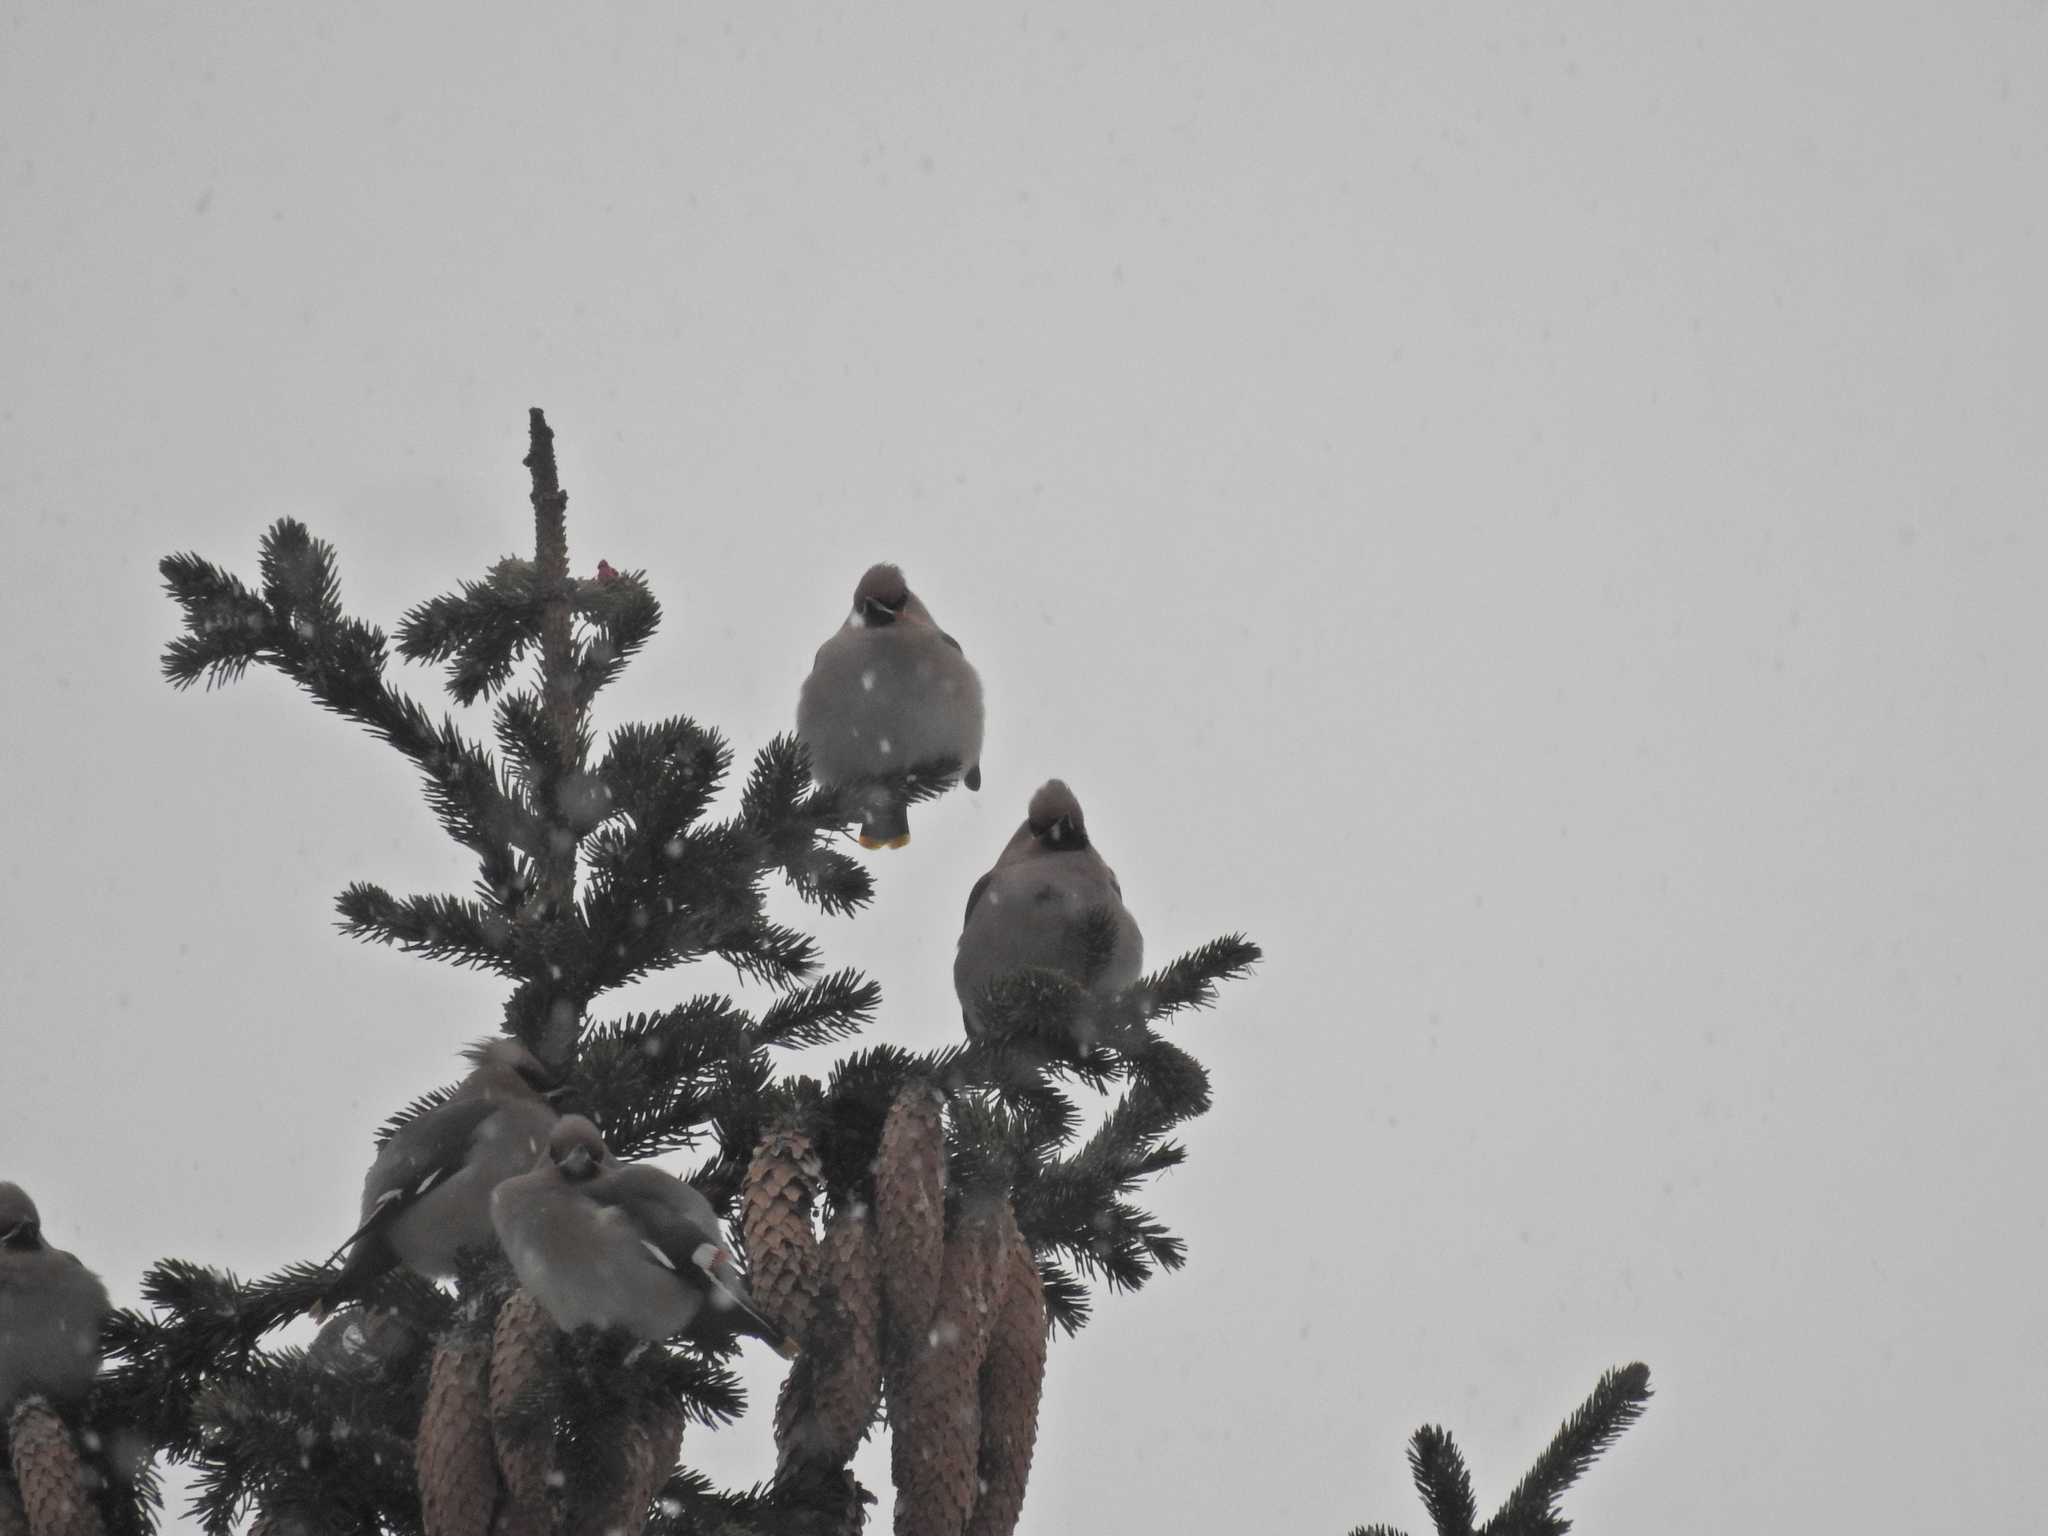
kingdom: Animalia
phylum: Chordata
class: Aves
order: Passeriformes
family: Bombycillidae
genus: Bombycilla
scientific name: Bombycilla garrulus
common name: Bohemian waxwing
